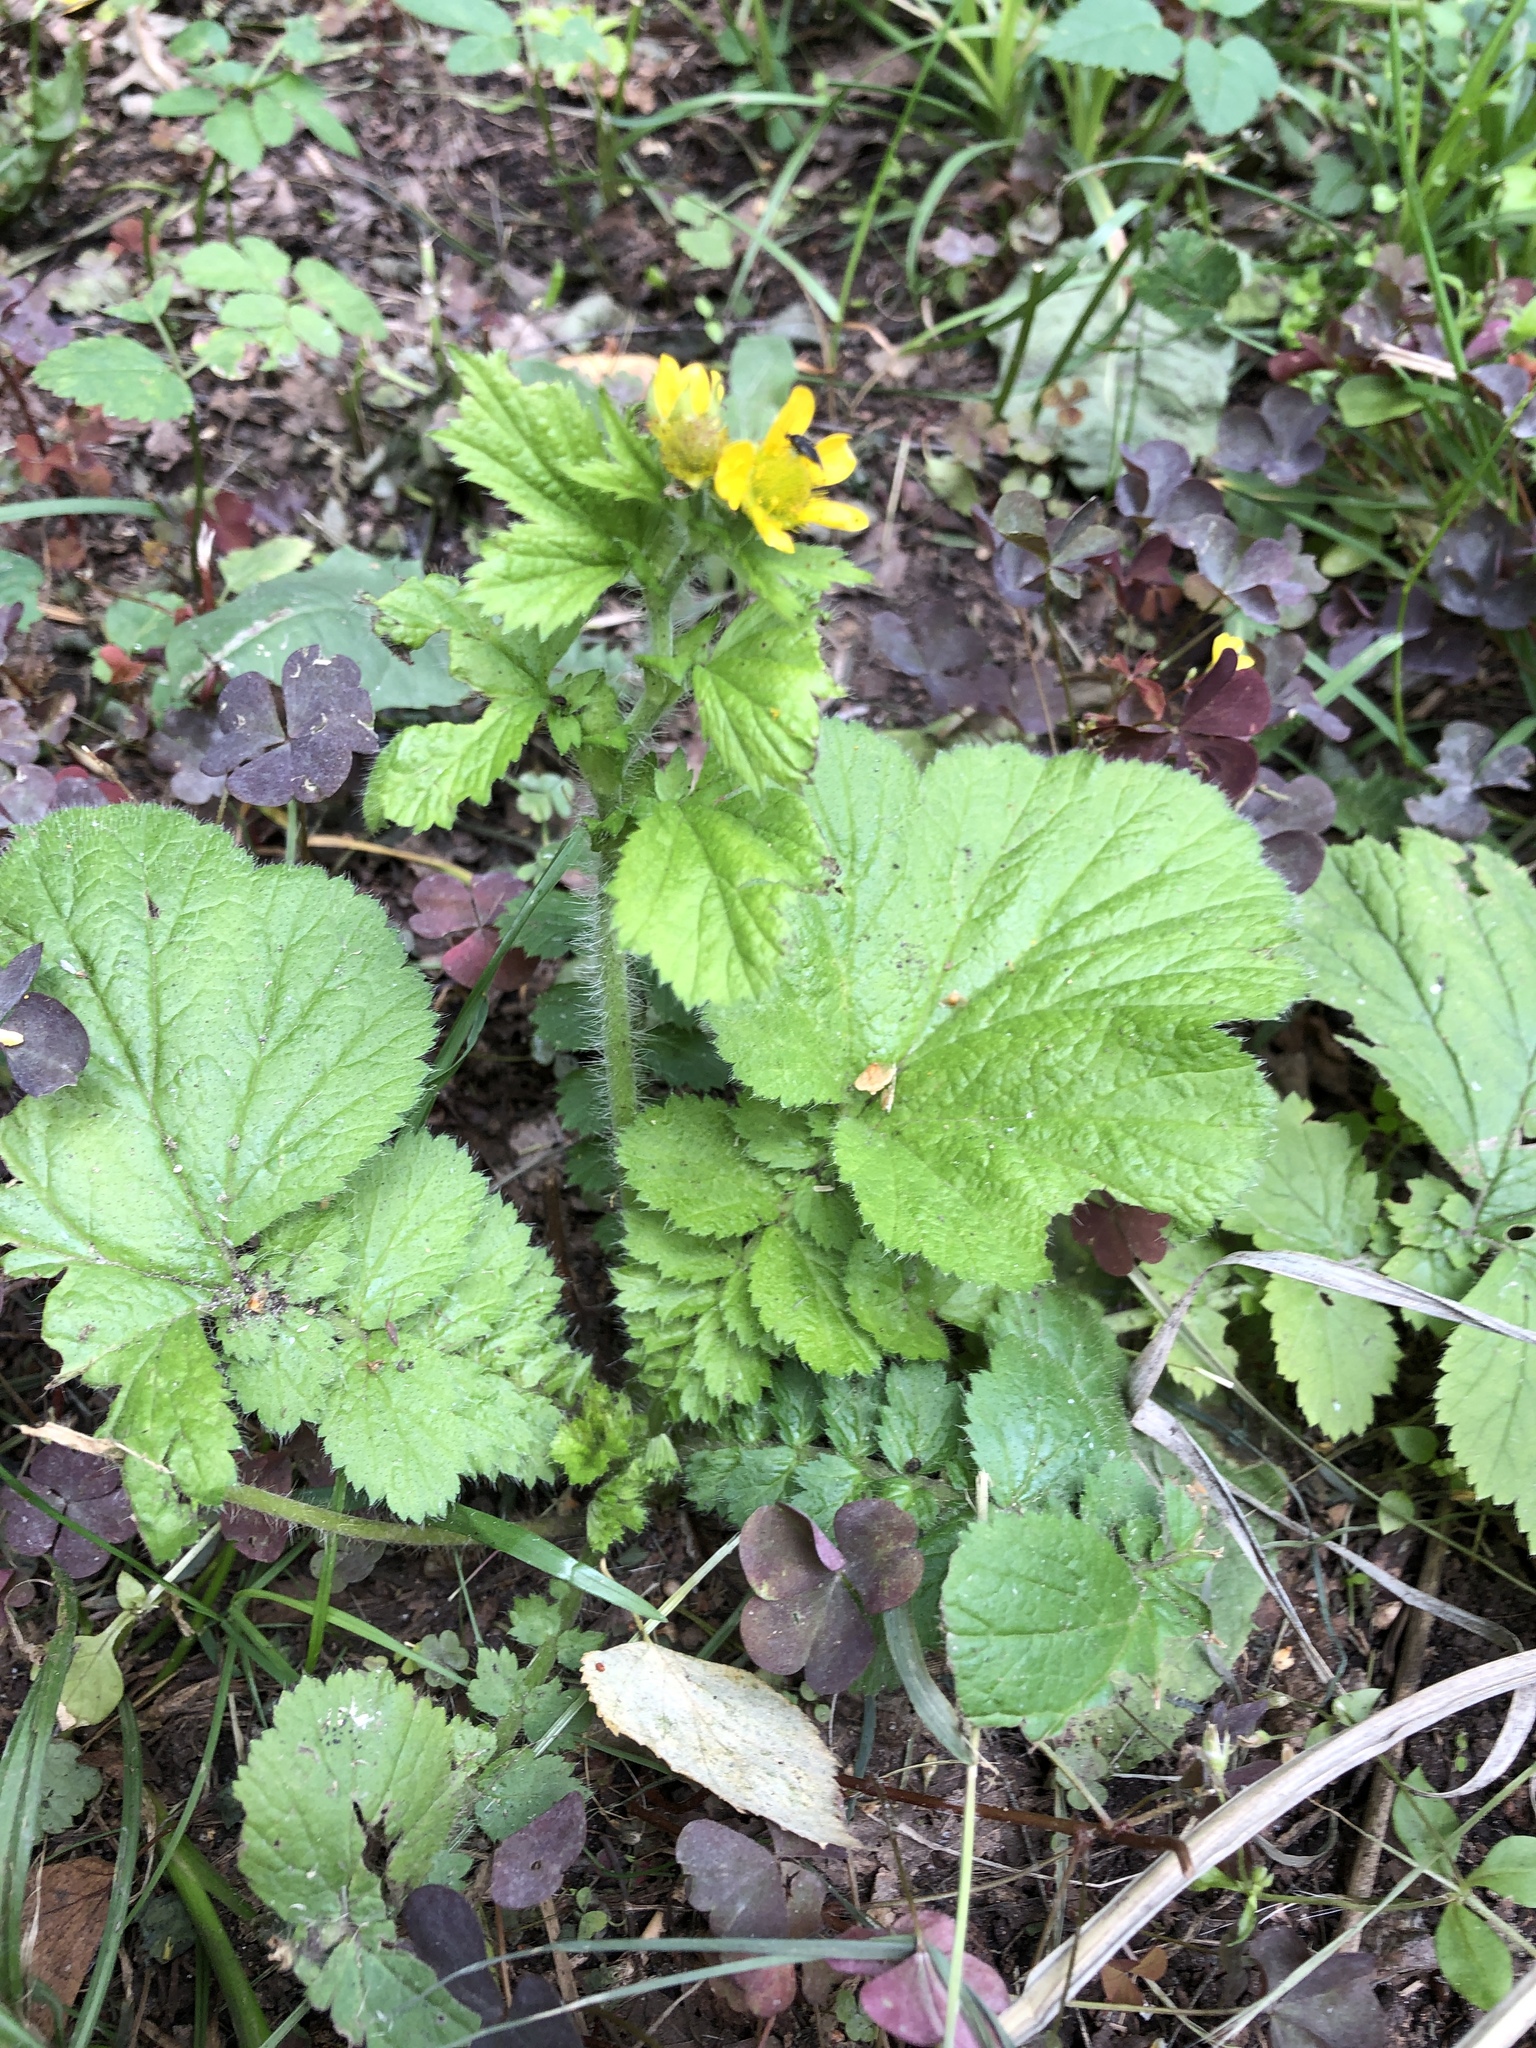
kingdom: Plantae
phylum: Tracheophyta
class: Magnoliopsida
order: Rosales
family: Rosaceae
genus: Geum
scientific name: Geum macrophyllum
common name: Large-leaved avens
